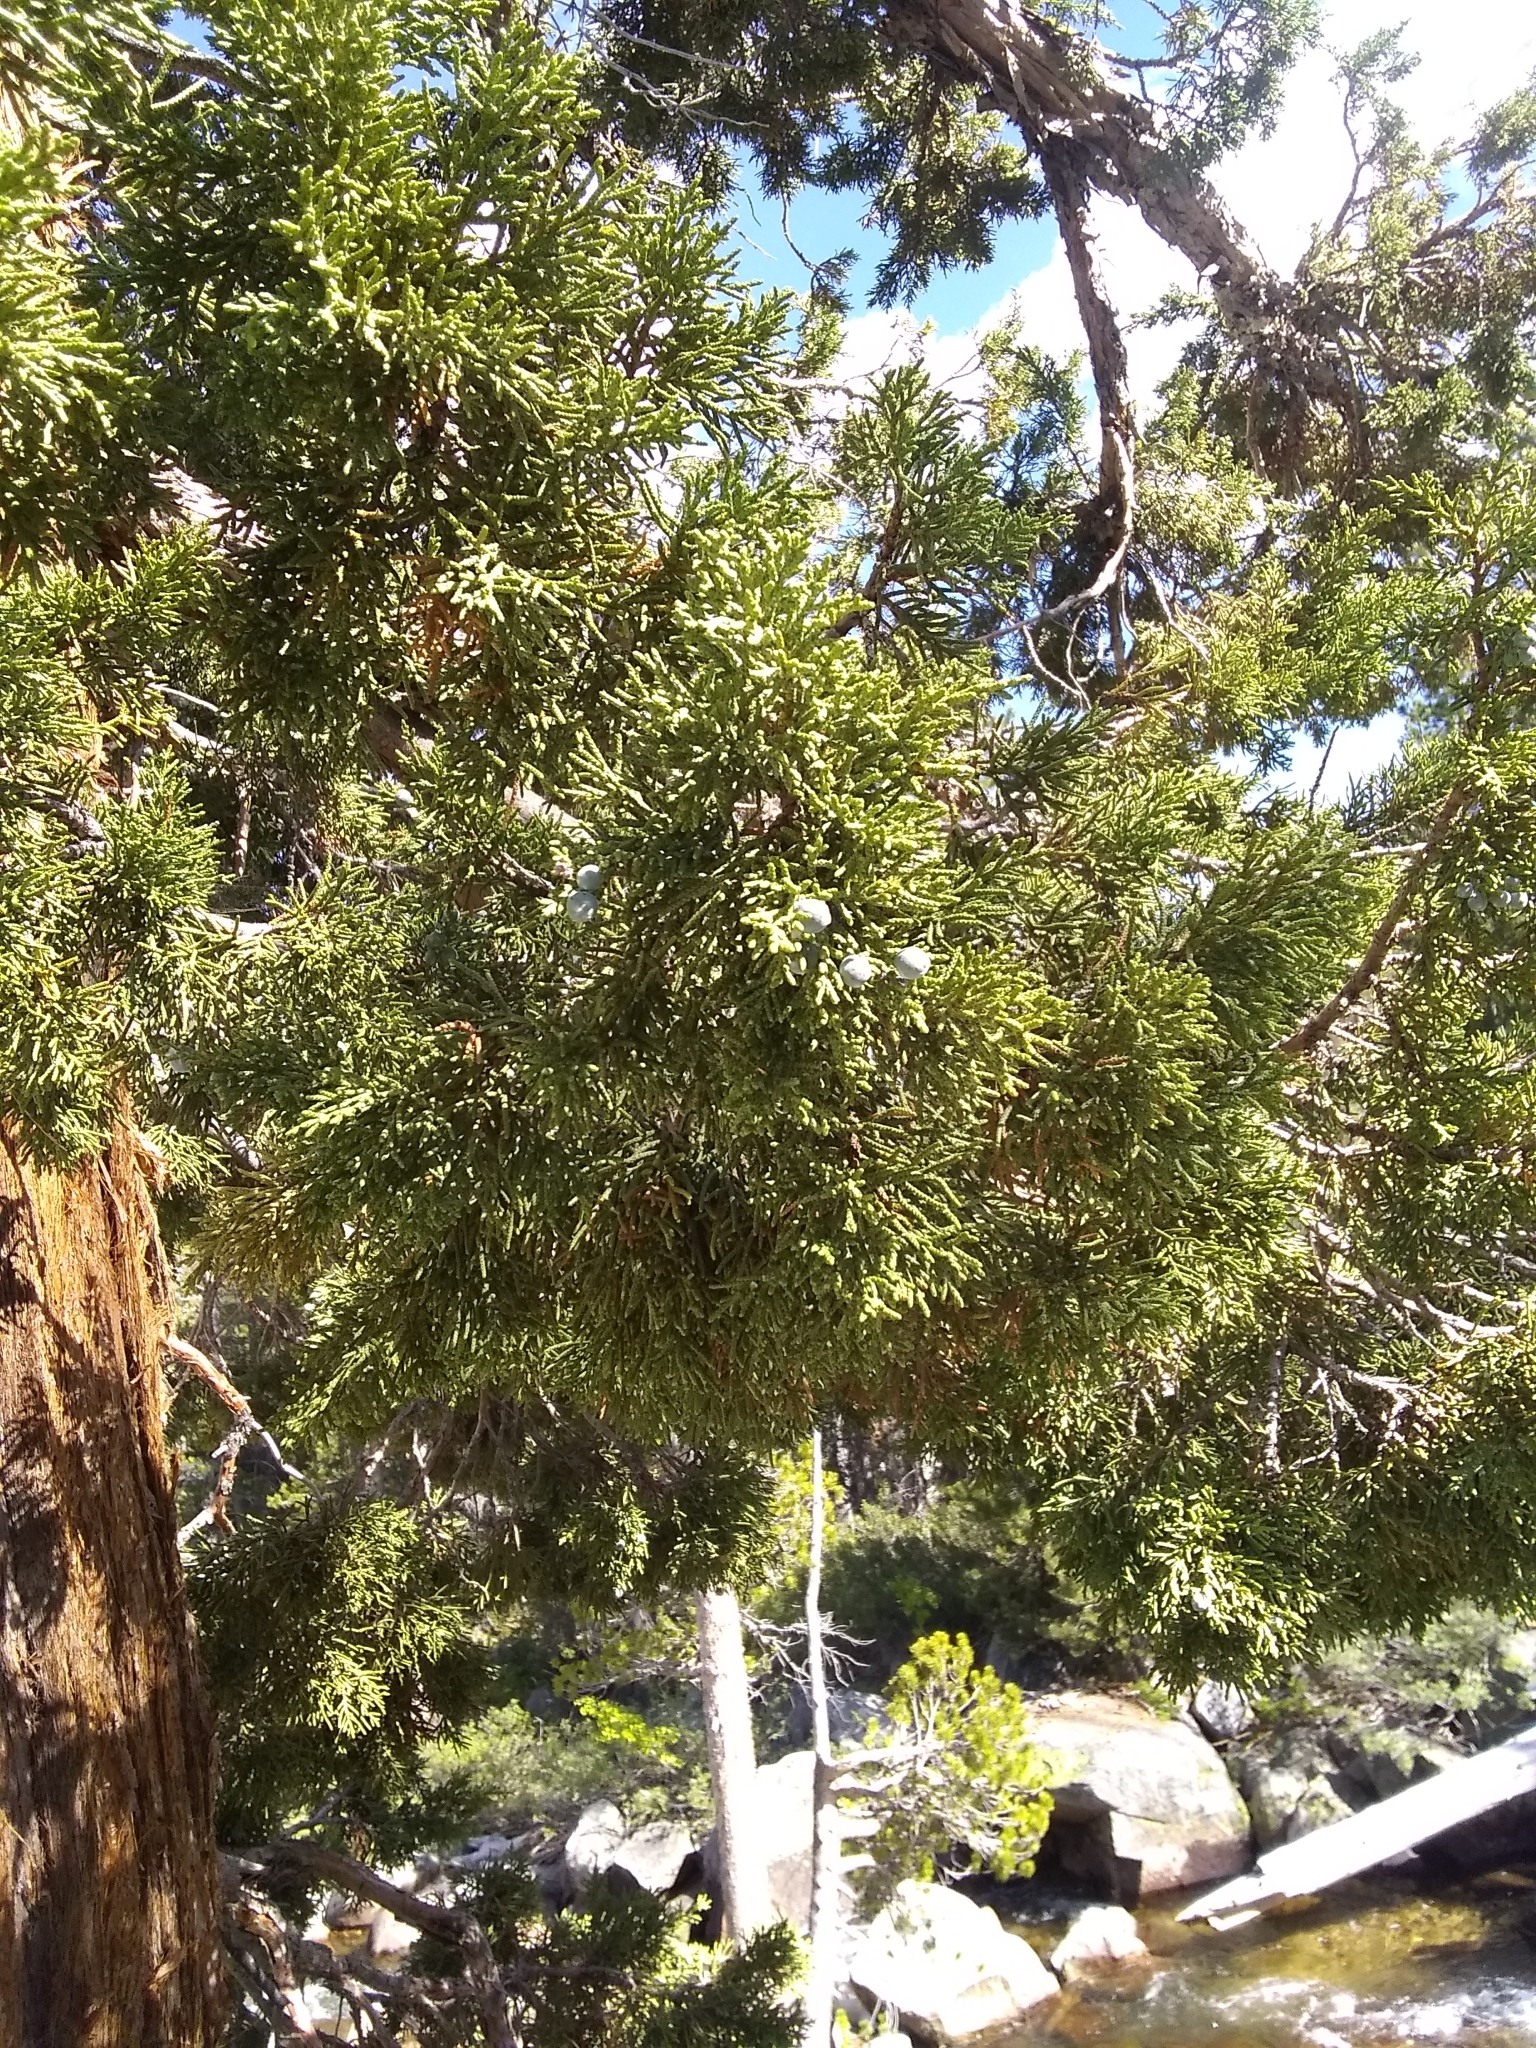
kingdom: Plantae
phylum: Tracheophyta
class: Pinopsida
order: Pinales
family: Cupressaceae
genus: Juniperus
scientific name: Juniperus occidentalis
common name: Western juniper
